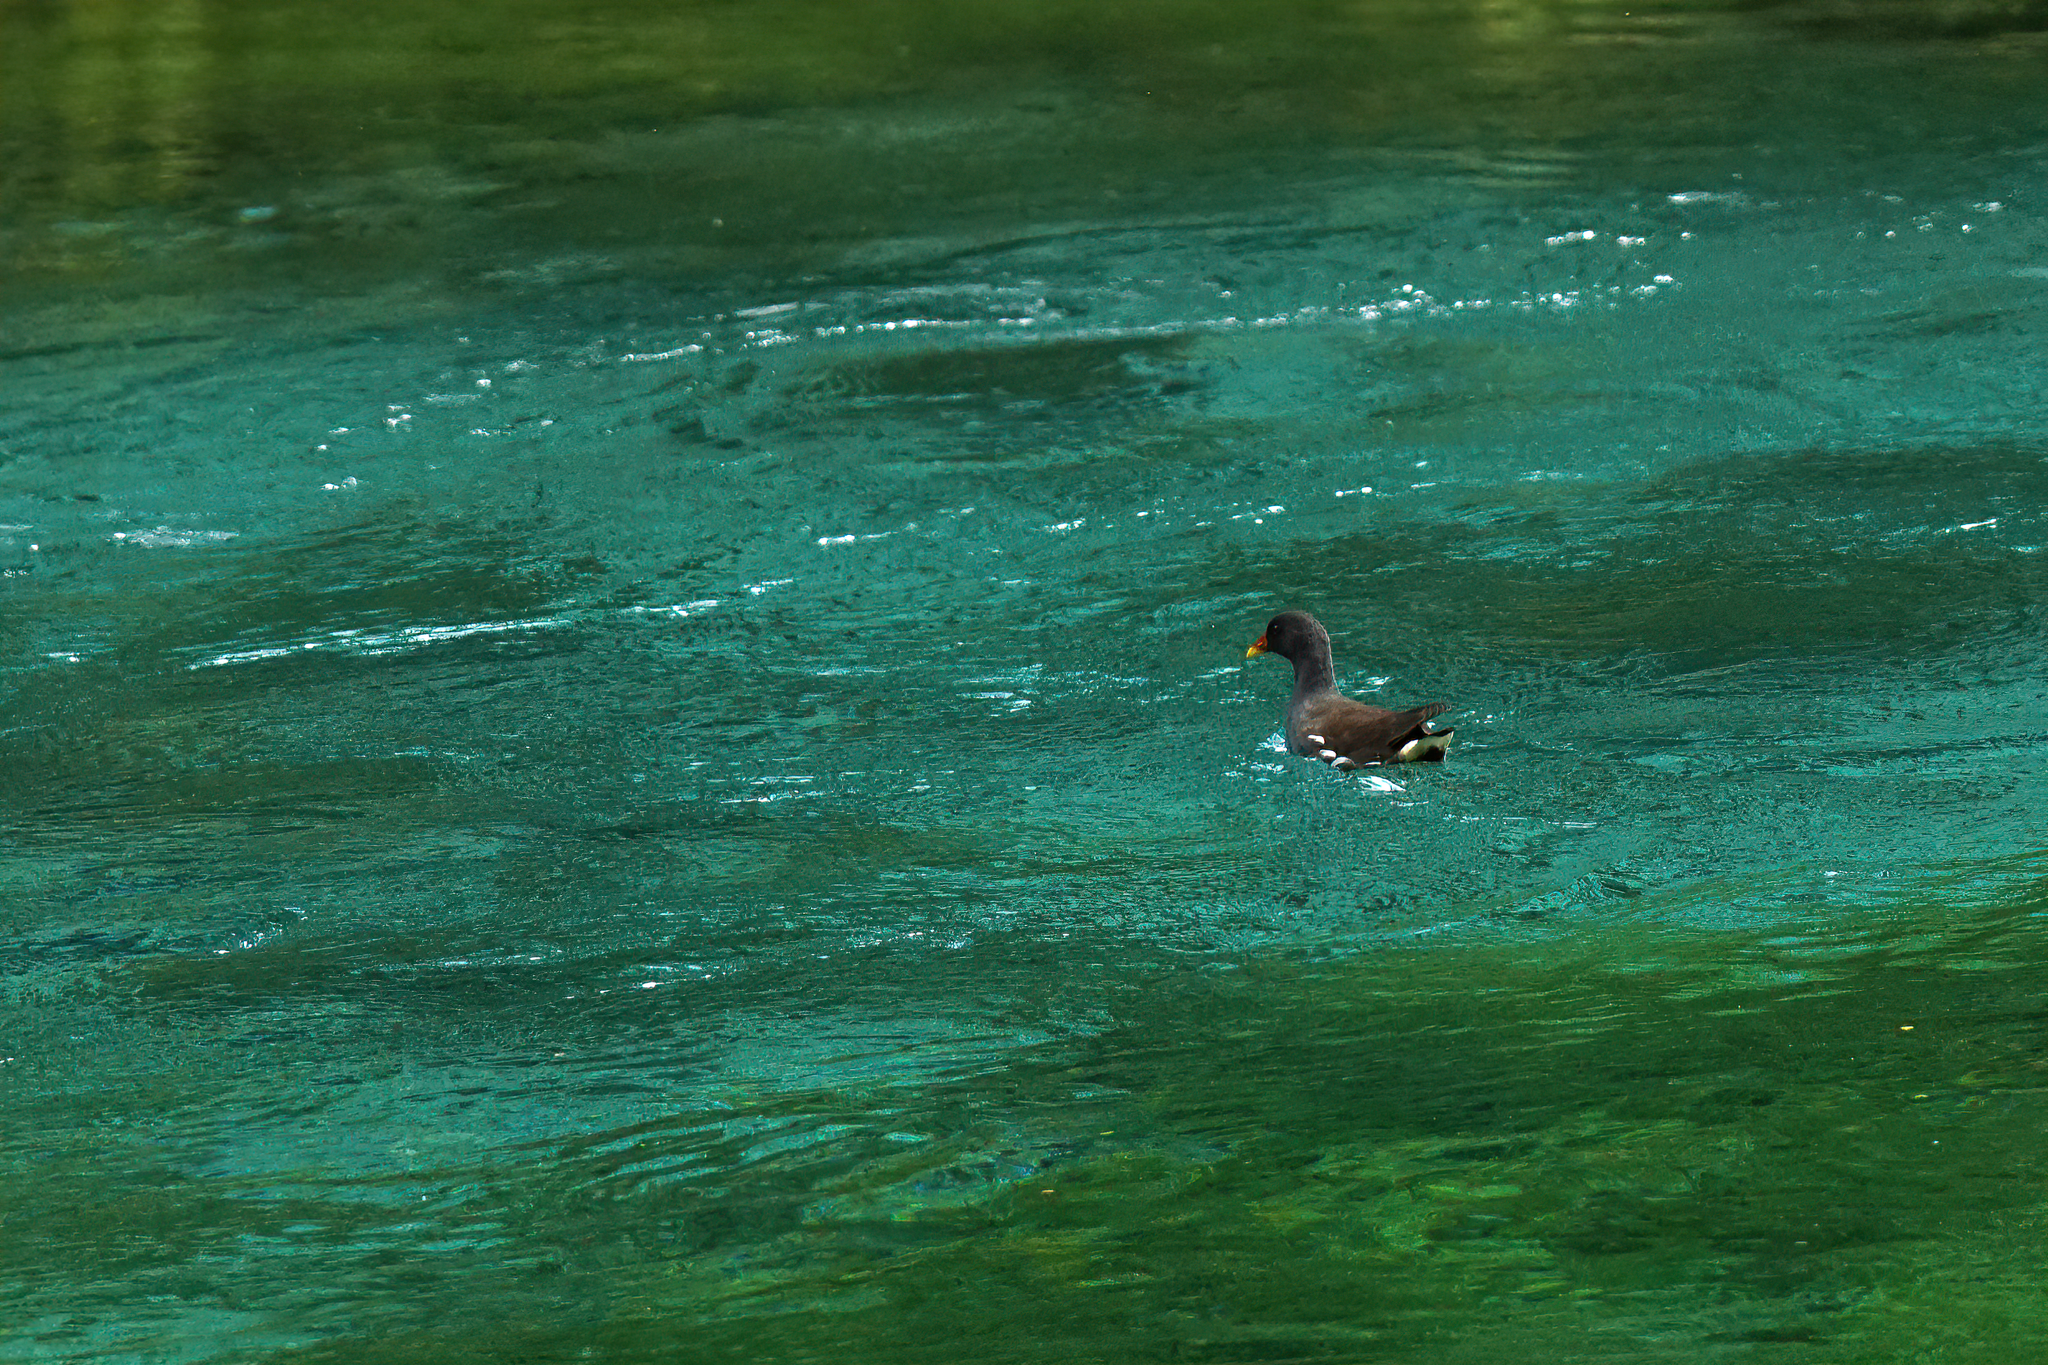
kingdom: Animalia
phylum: Chordata
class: Aves
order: Gruiformes
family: Rallidae
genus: Gallinula
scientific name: Gallinula chloropus
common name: Common moorhen
